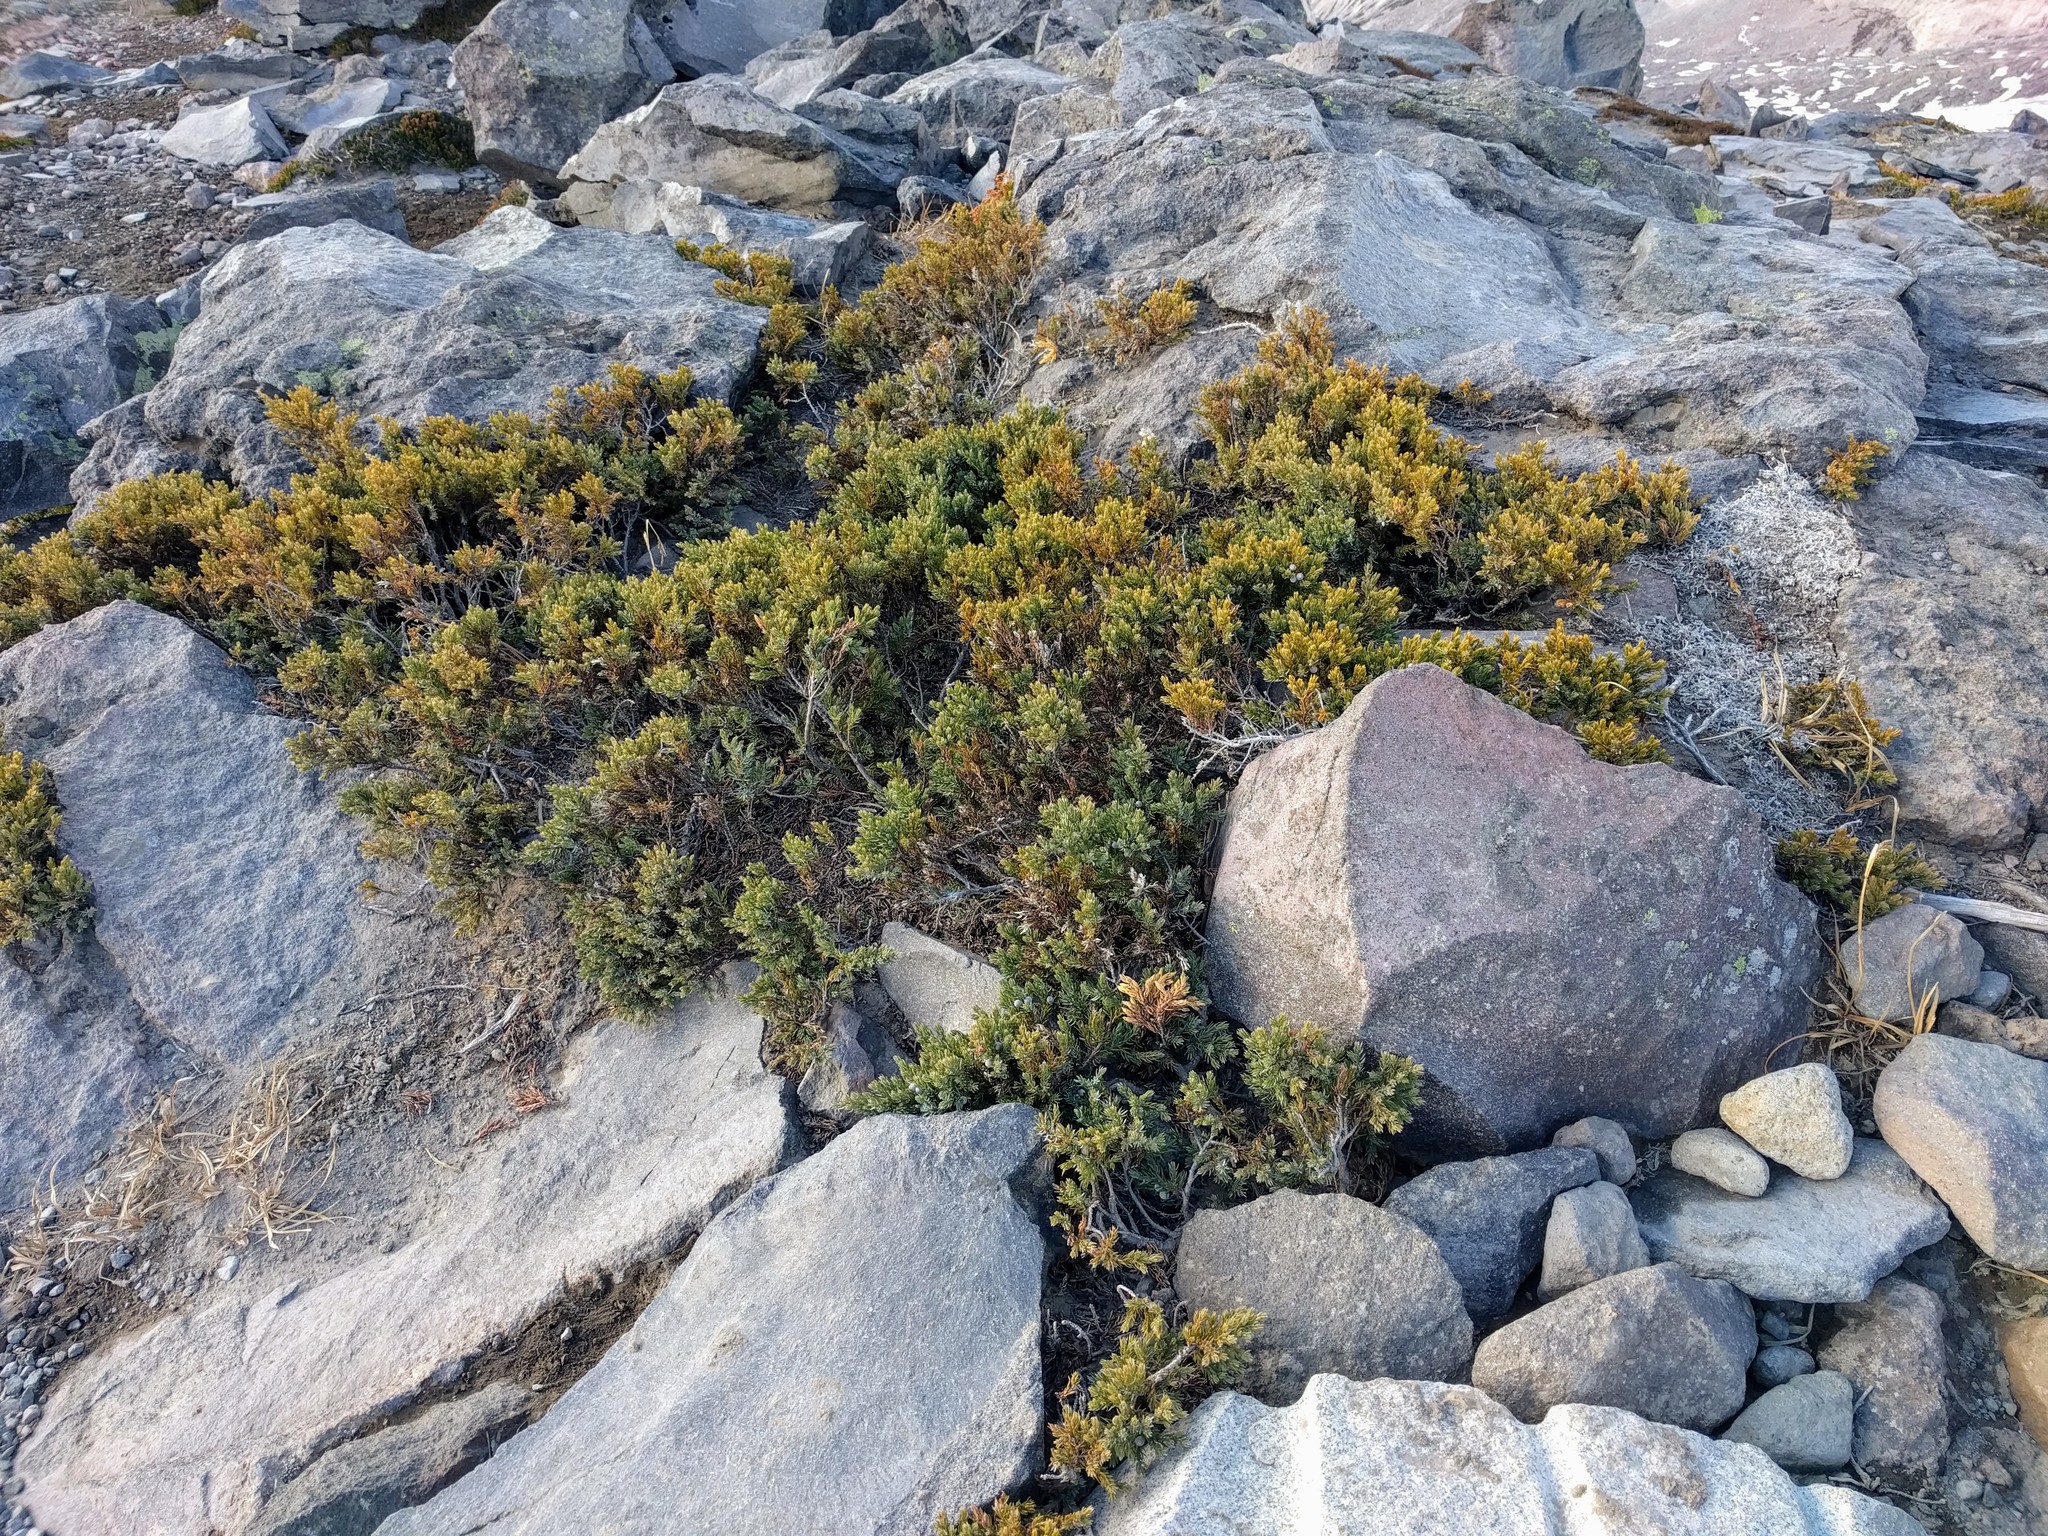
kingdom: Plantae
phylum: Tracheophyta
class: Pinopsida
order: Pinales
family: Cupressaceae
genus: Juniperus
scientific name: Juniperus communis
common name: Common juniper
